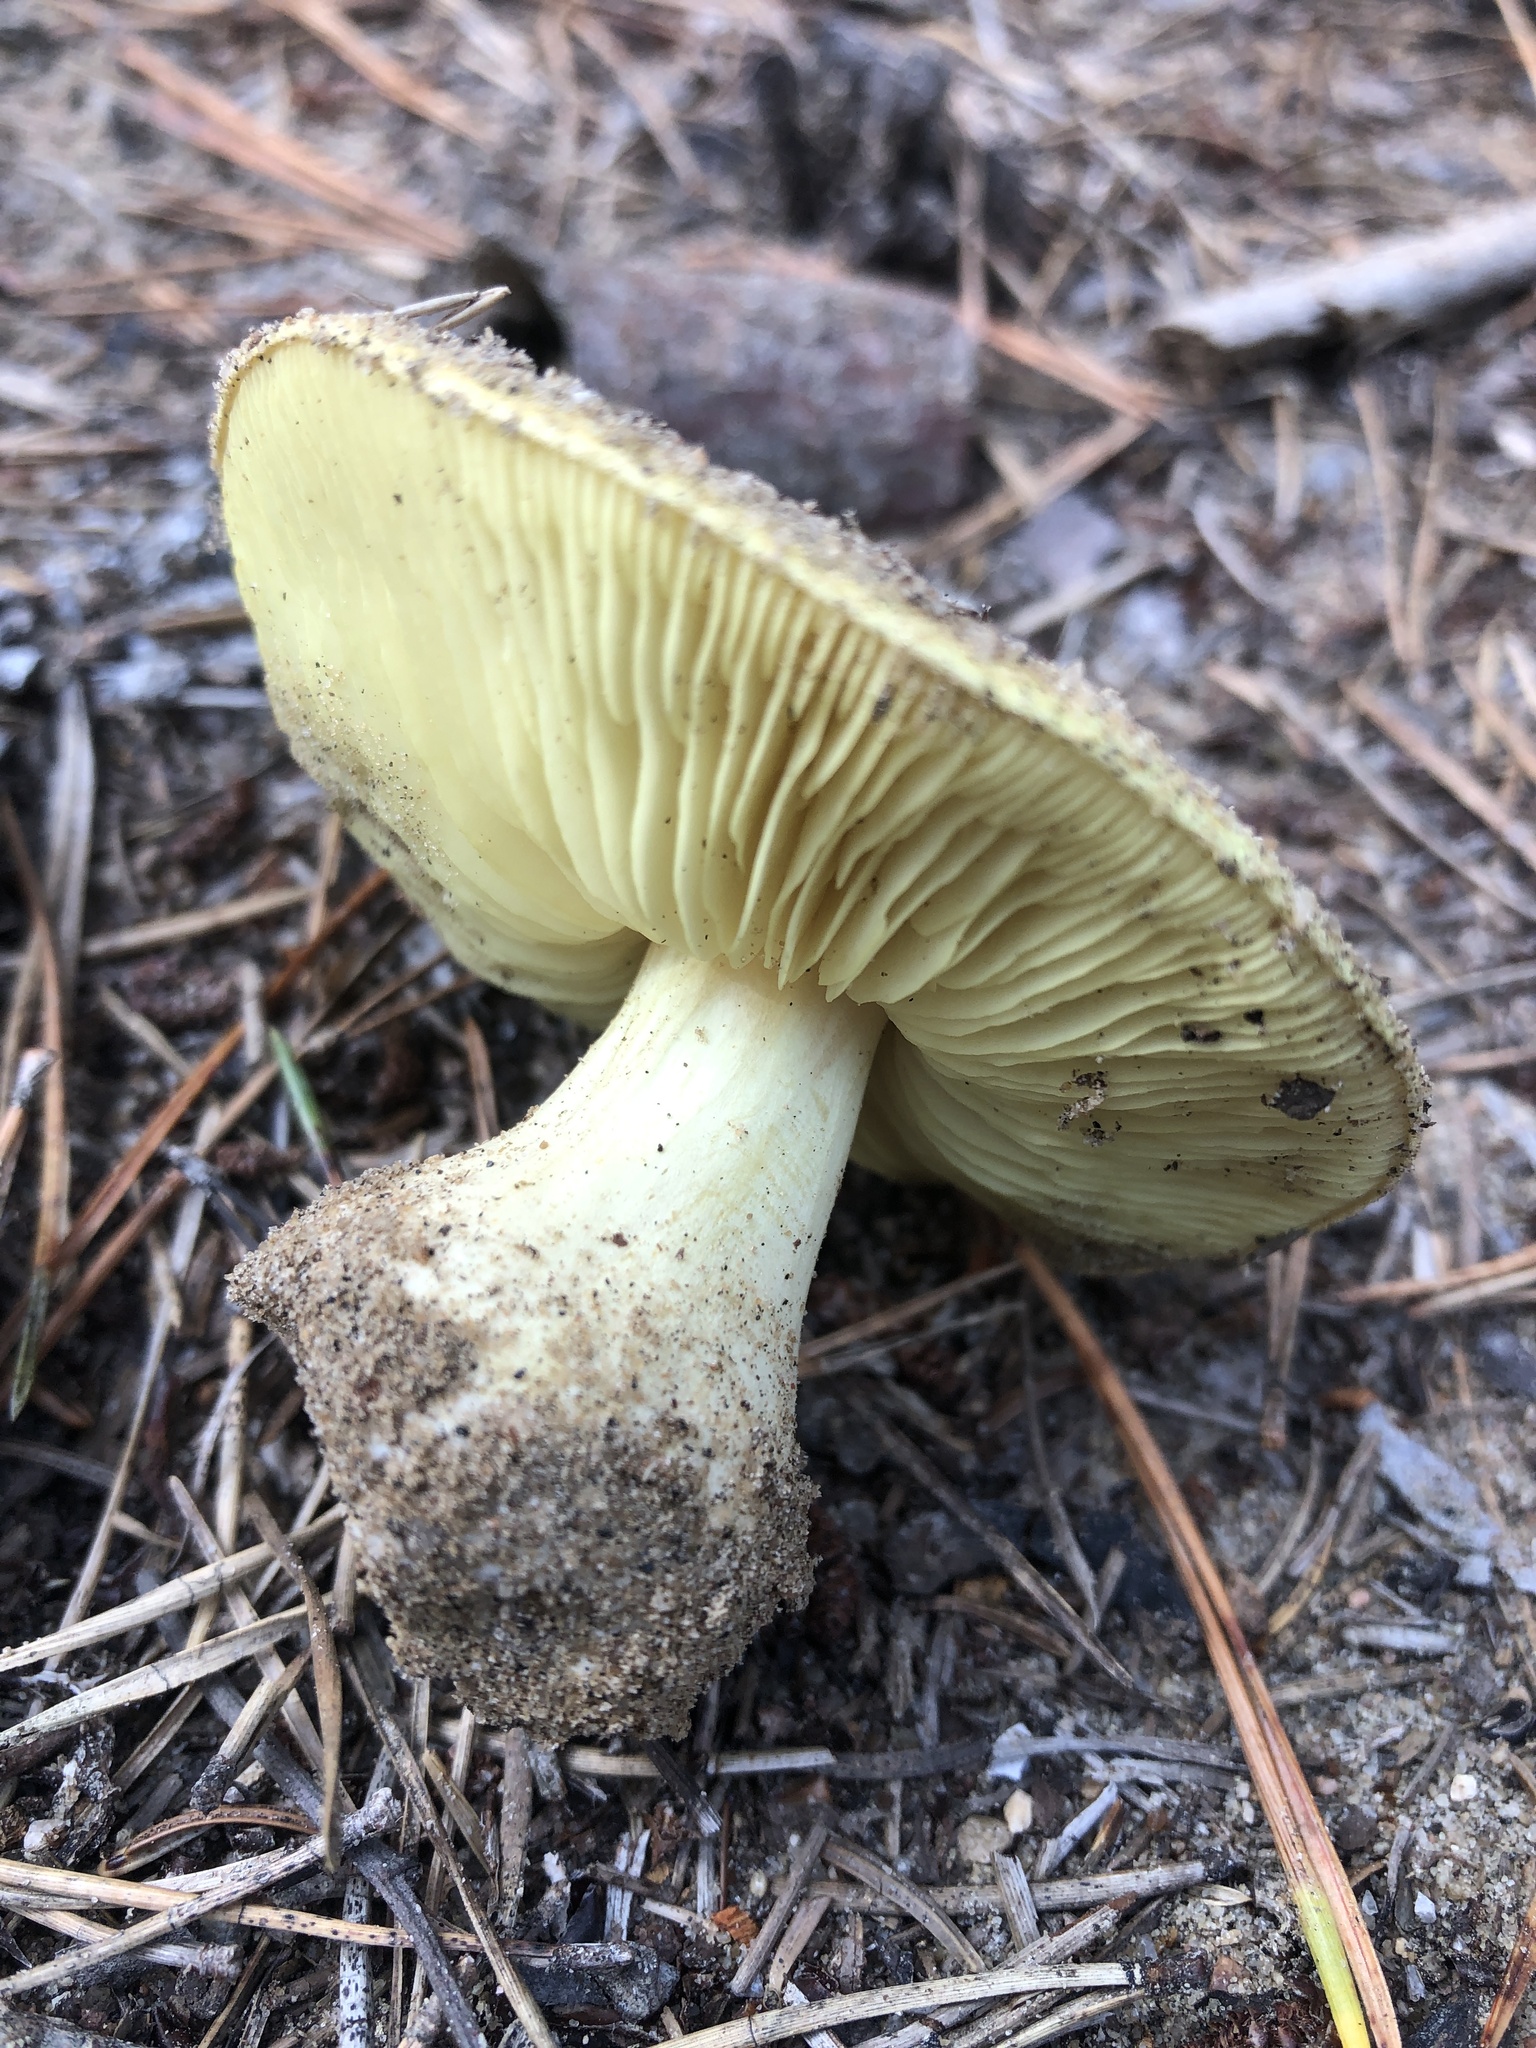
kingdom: Fungi
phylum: Basidiomycota
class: Agaricomycetes
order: Agaricales
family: Tricholomataceae
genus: Tricholoma
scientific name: Tricholoma equestre
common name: Yellow knight
